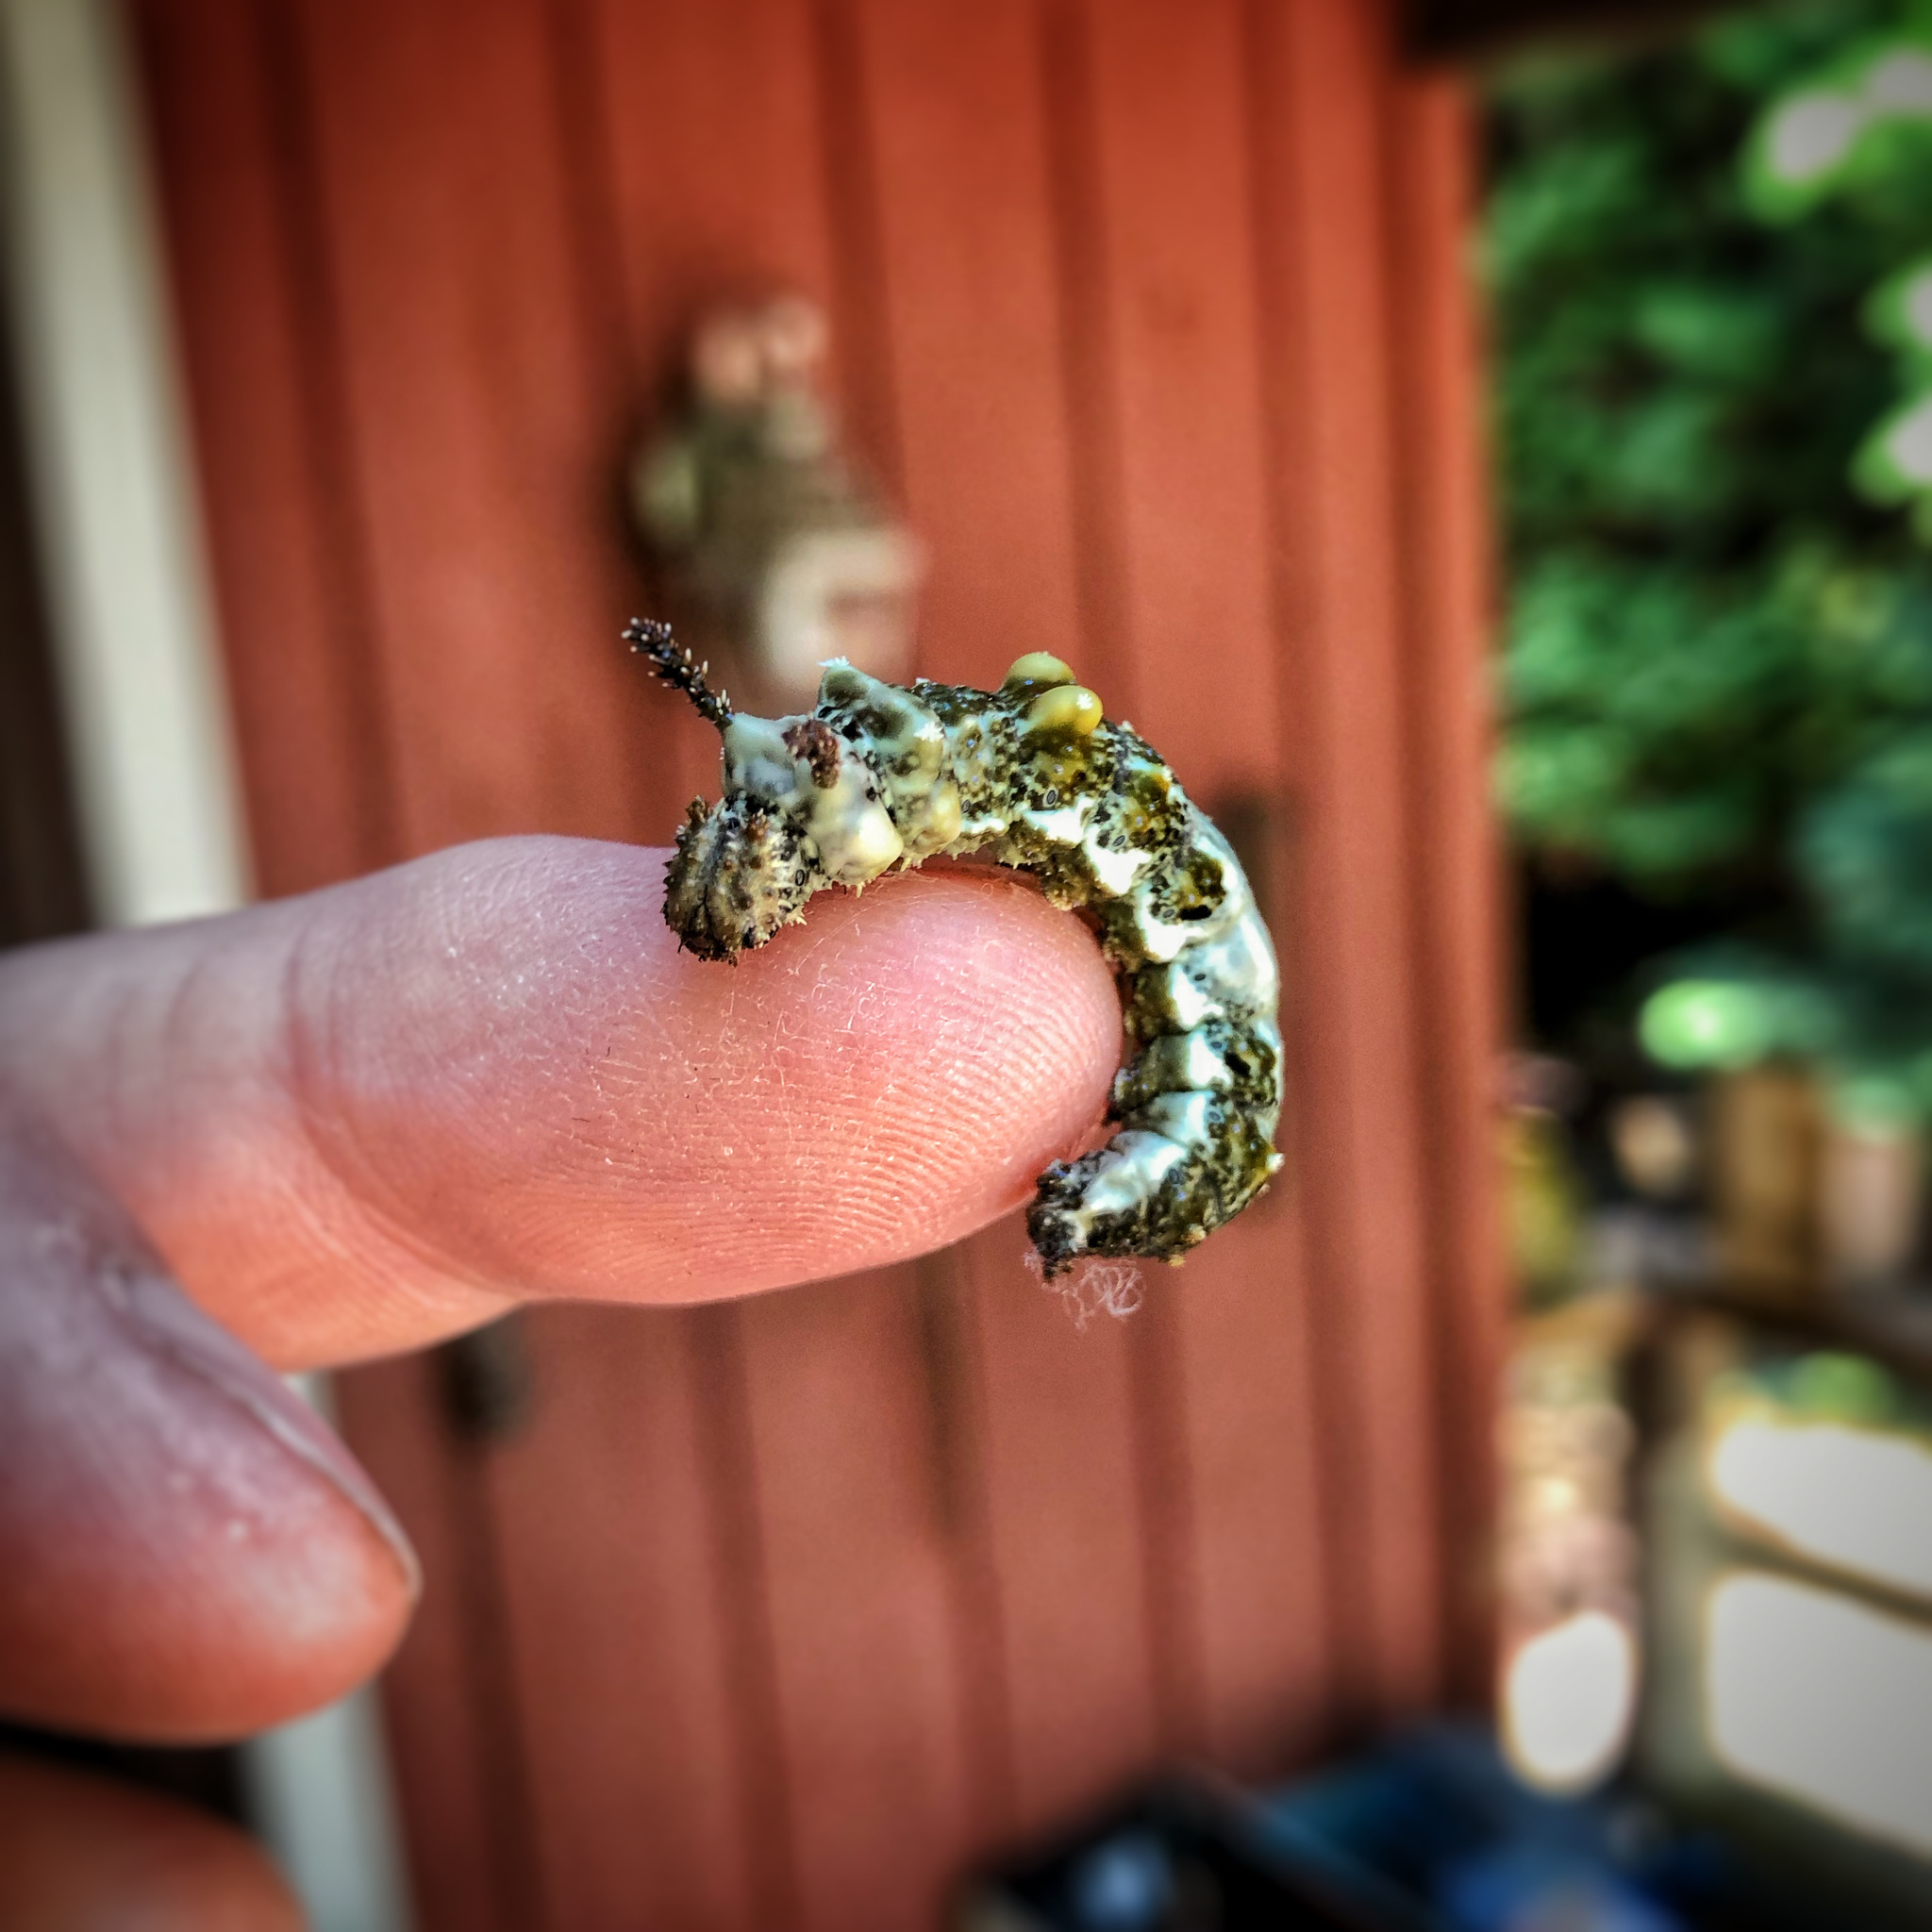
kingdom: Animalia
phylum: Arthropoda
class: Insecta
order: Lepidoptera
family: Nymphalidae
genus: Limenitis
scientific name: Limenitis
